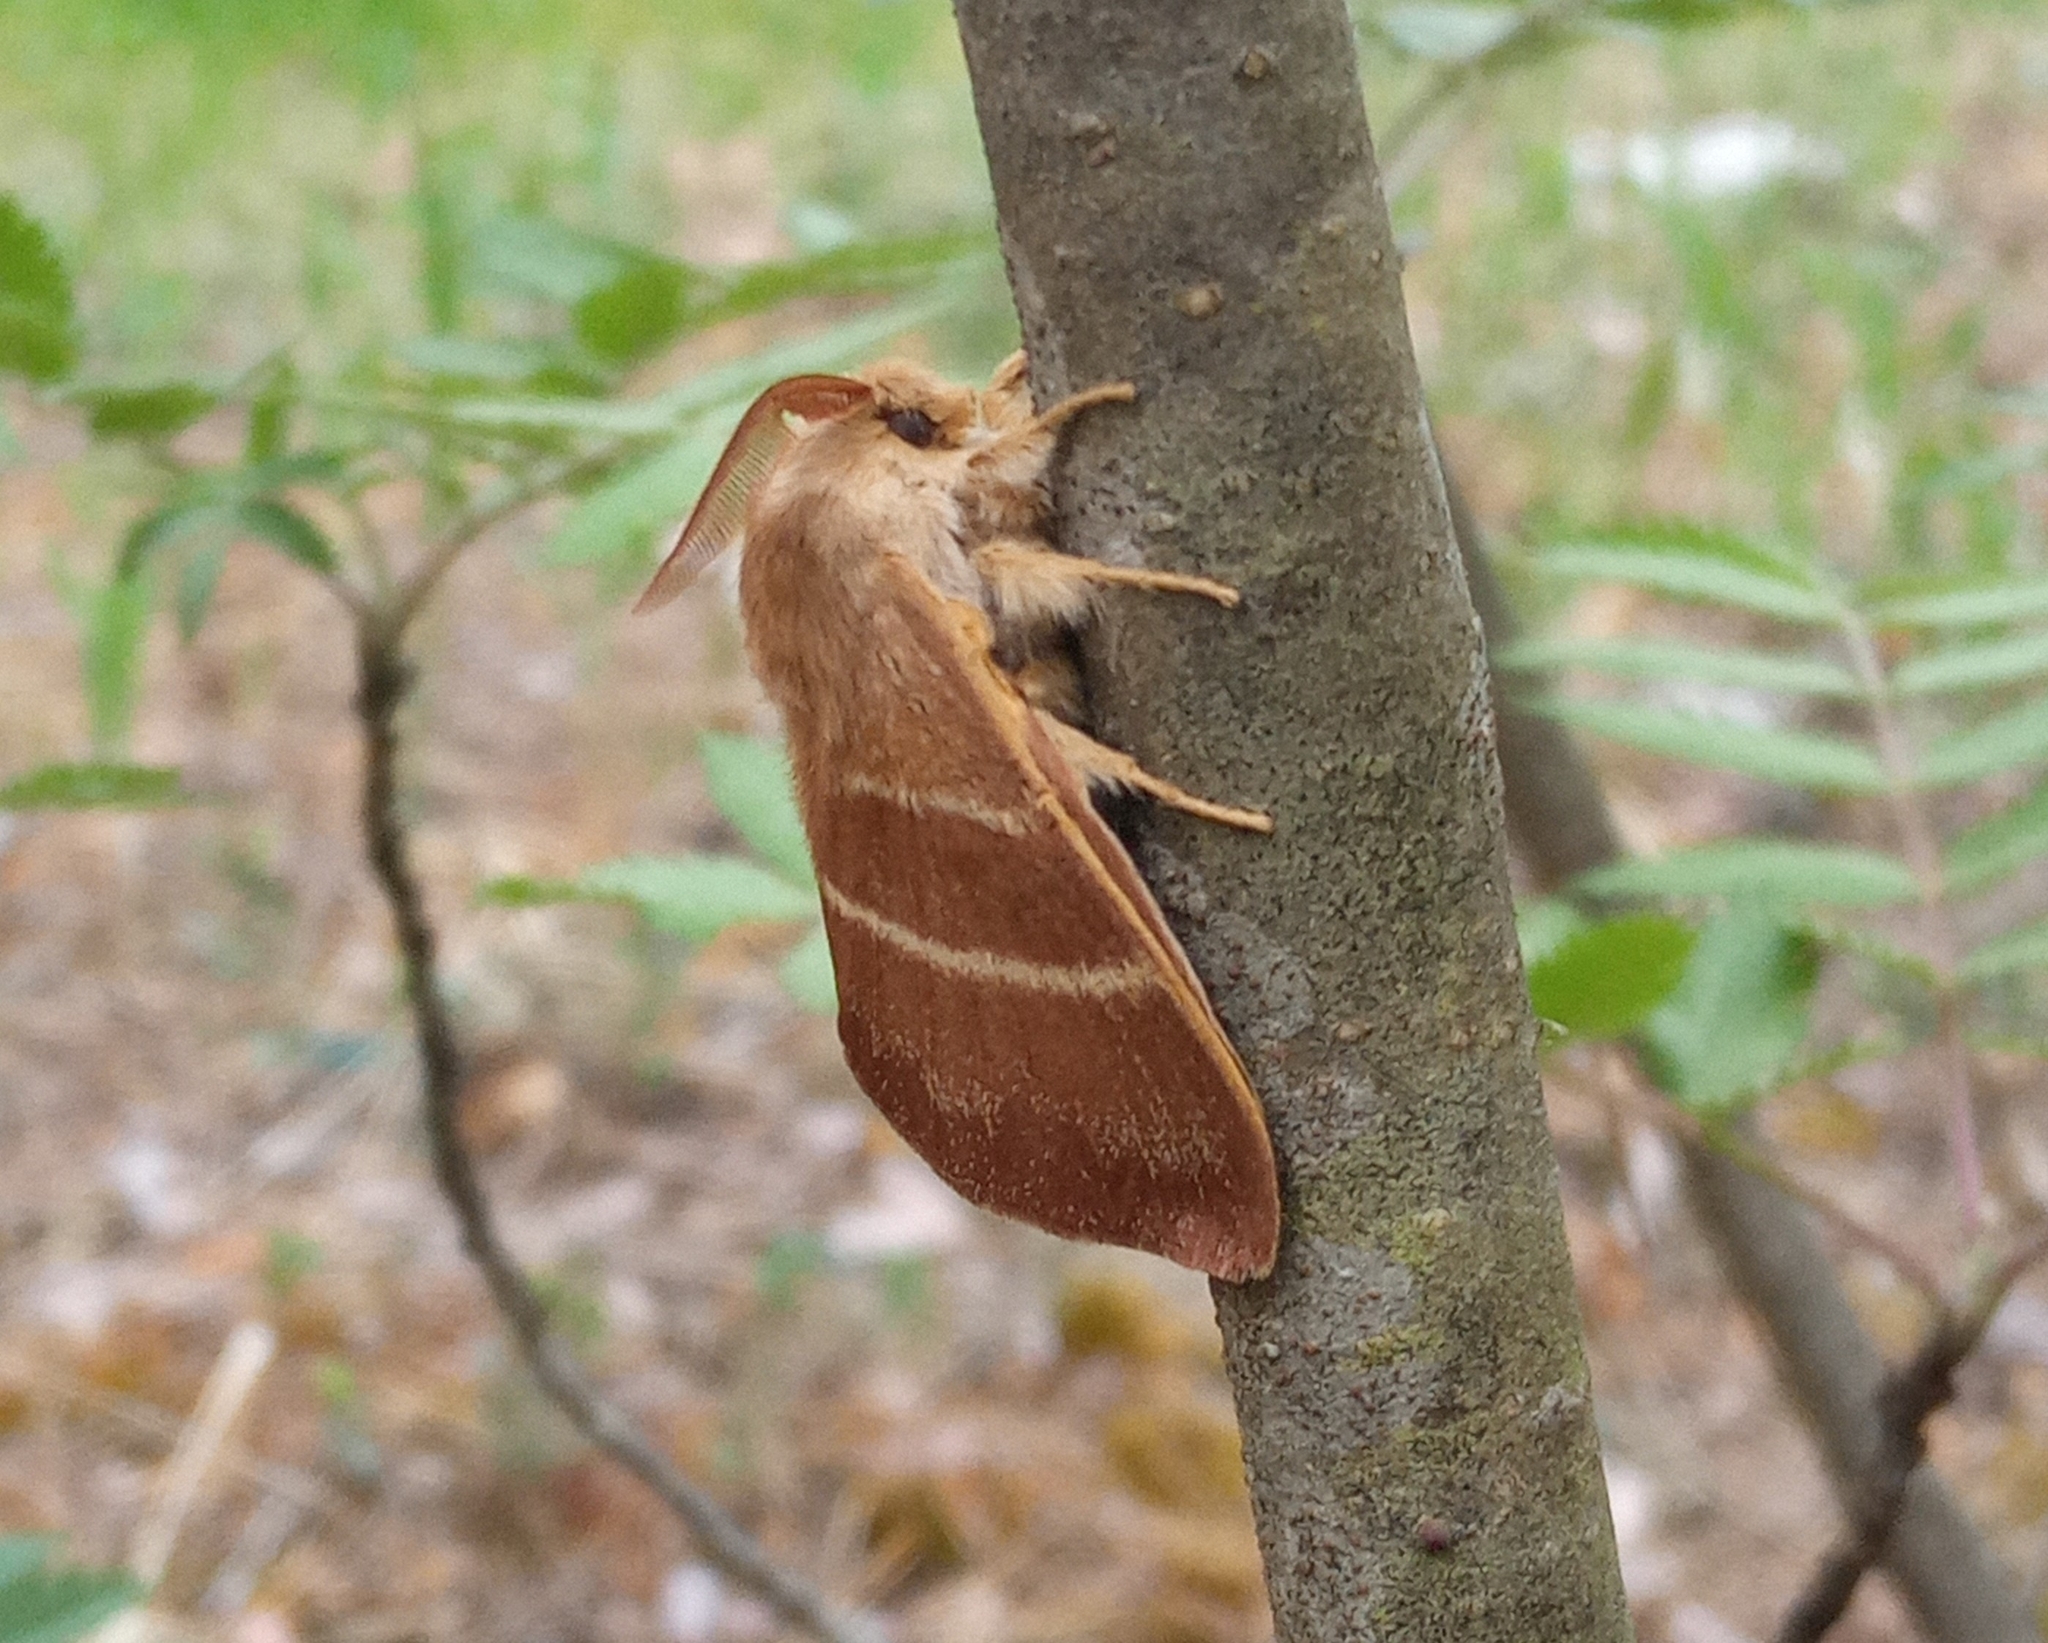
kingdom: Animalia
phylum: Arthropoda
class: Insecta
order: Lepidoptera
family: Lasiocampidae
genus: Macrothylacia
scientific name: Macrothylacia rubi
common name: Fox moth
